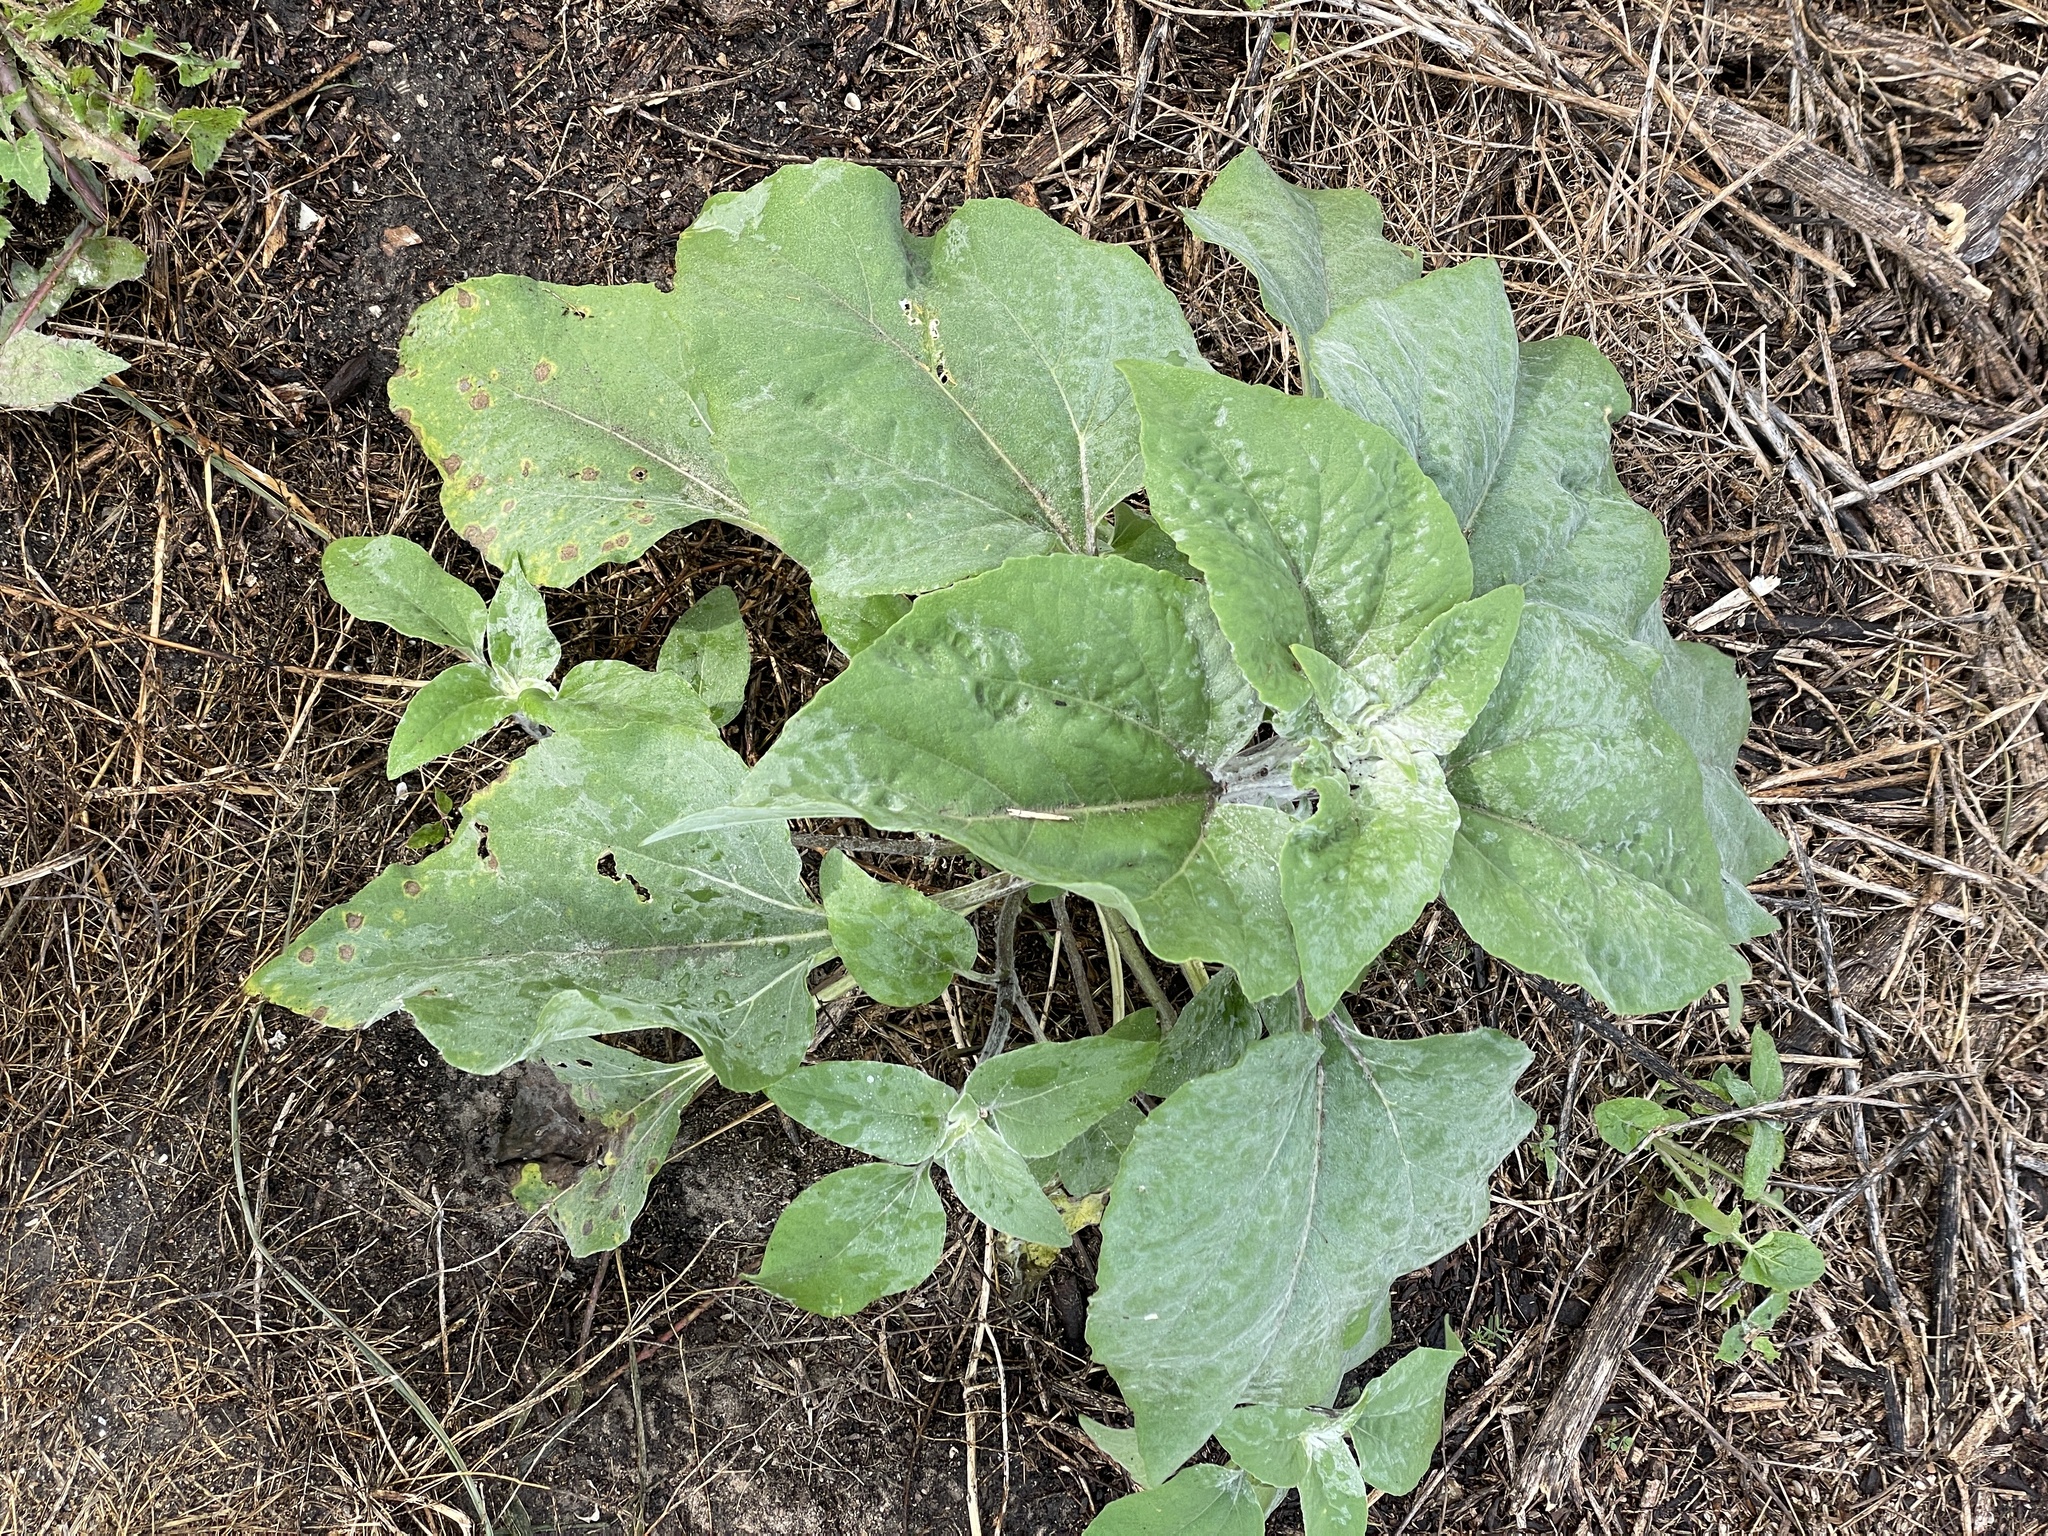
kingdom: Plantae
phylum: Tracheophyta
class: Magnoliopsida
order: Asterales
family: Asteraceae
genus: Helianthus
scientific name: Helianthus argophyllus
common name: Silverleaf sunflower
